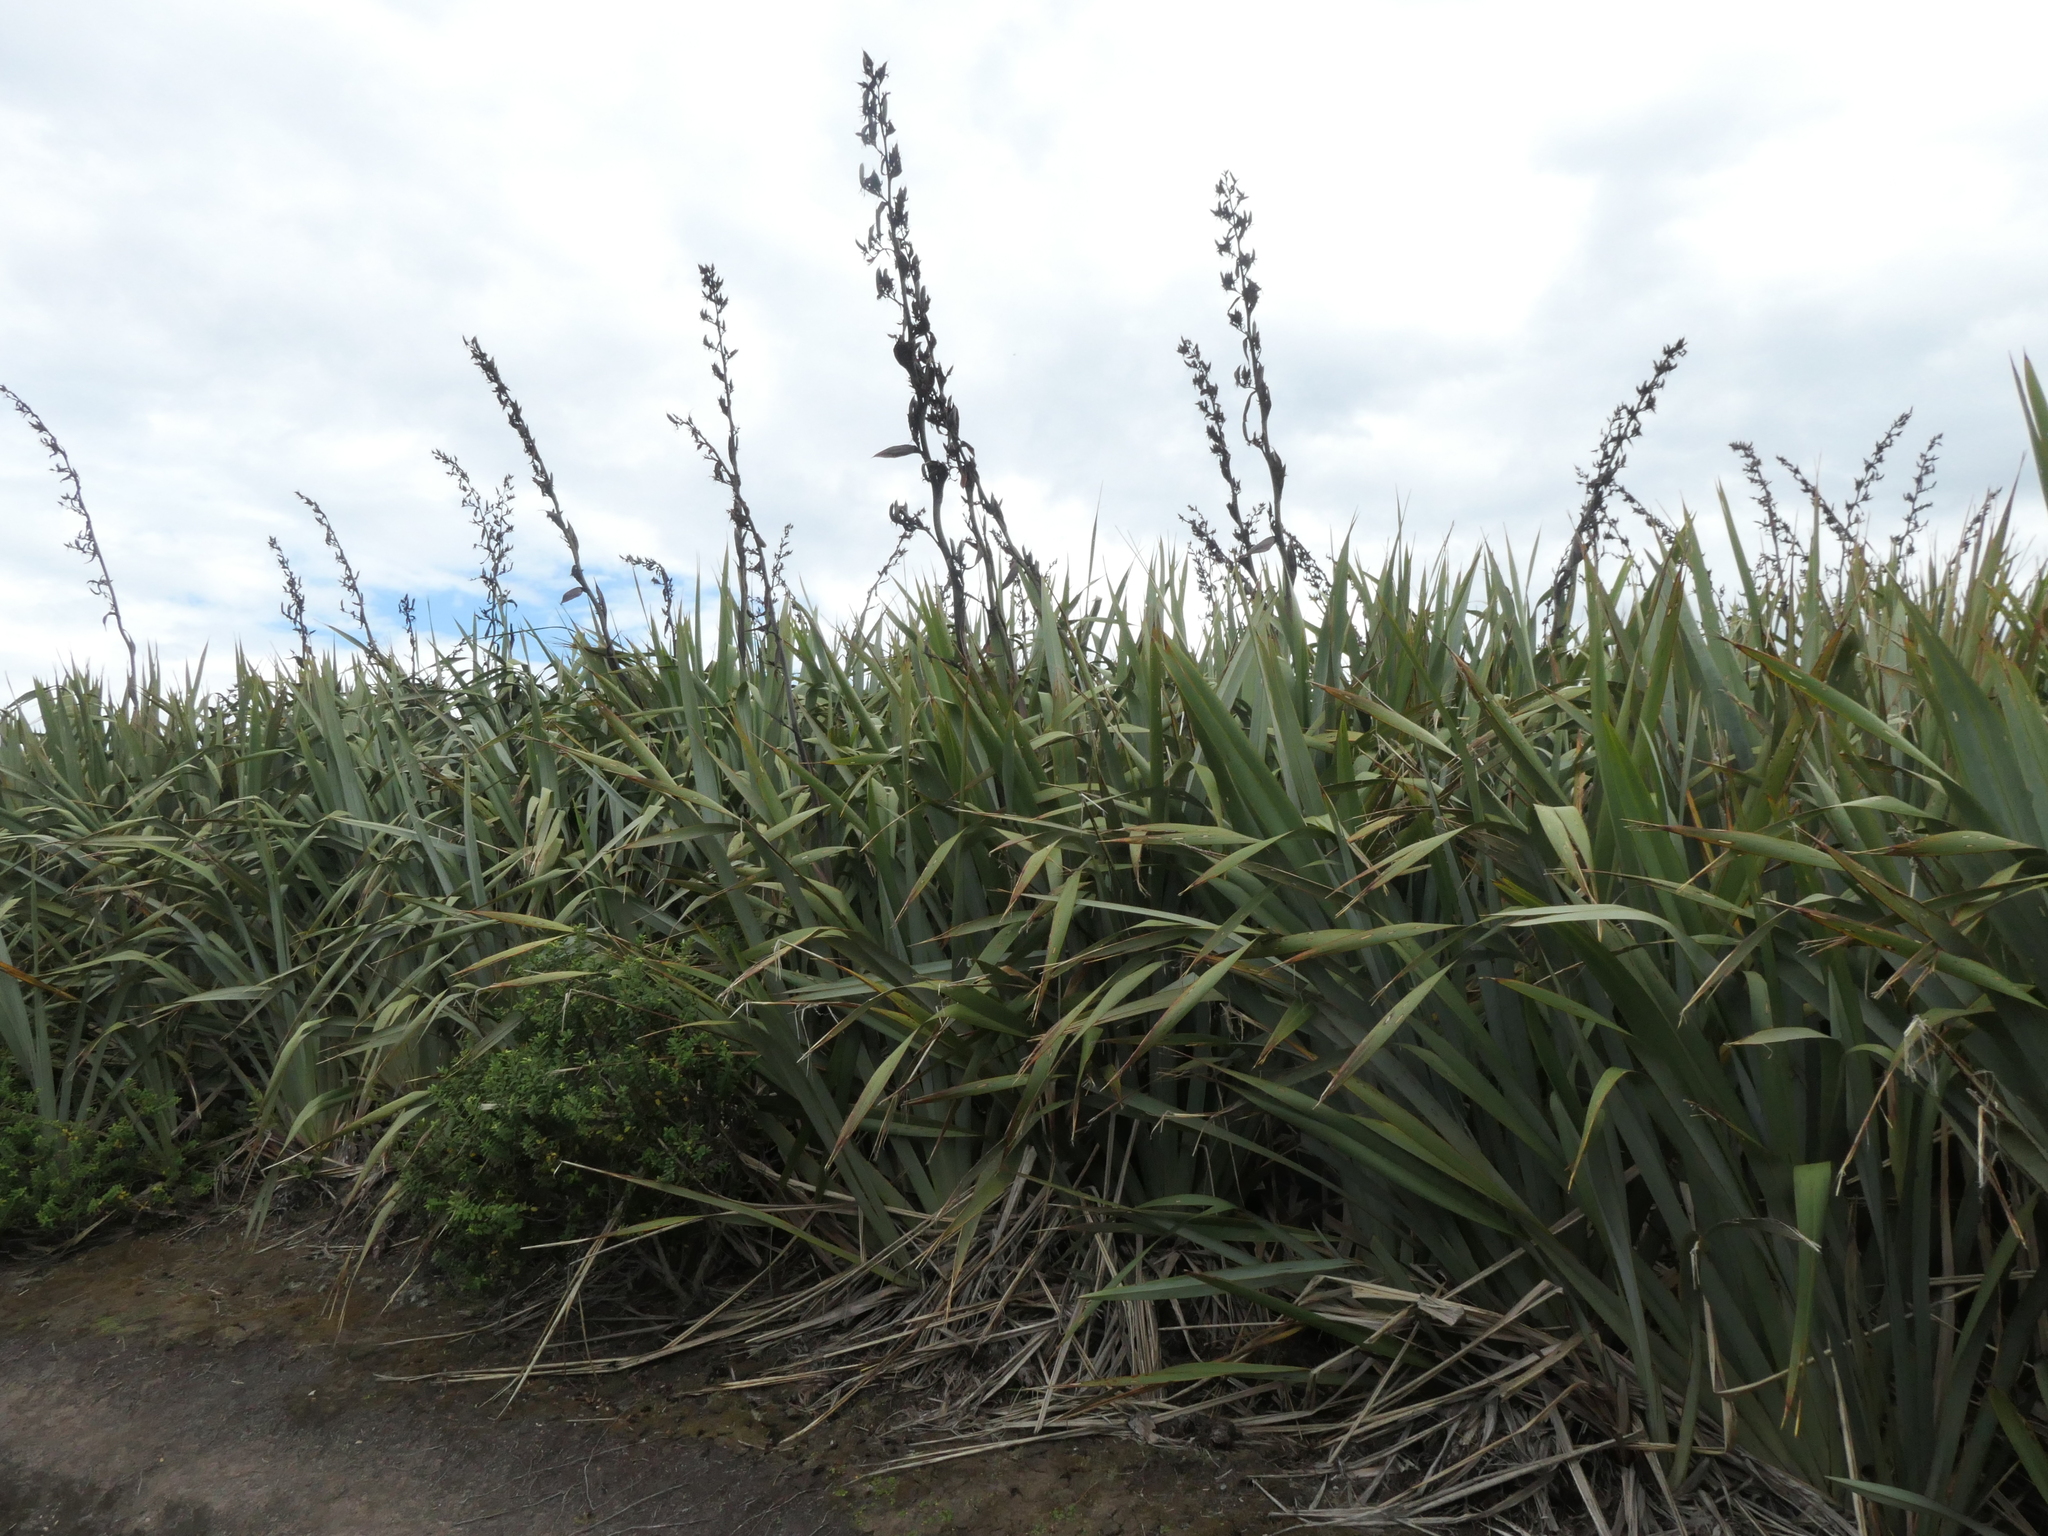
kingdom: Plantae
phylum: Tracheophyta
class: Liliopsida
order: Asparagales
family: Asphodelaceae
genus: Phormium
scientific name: Phormium tenax
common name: New zealand flax
